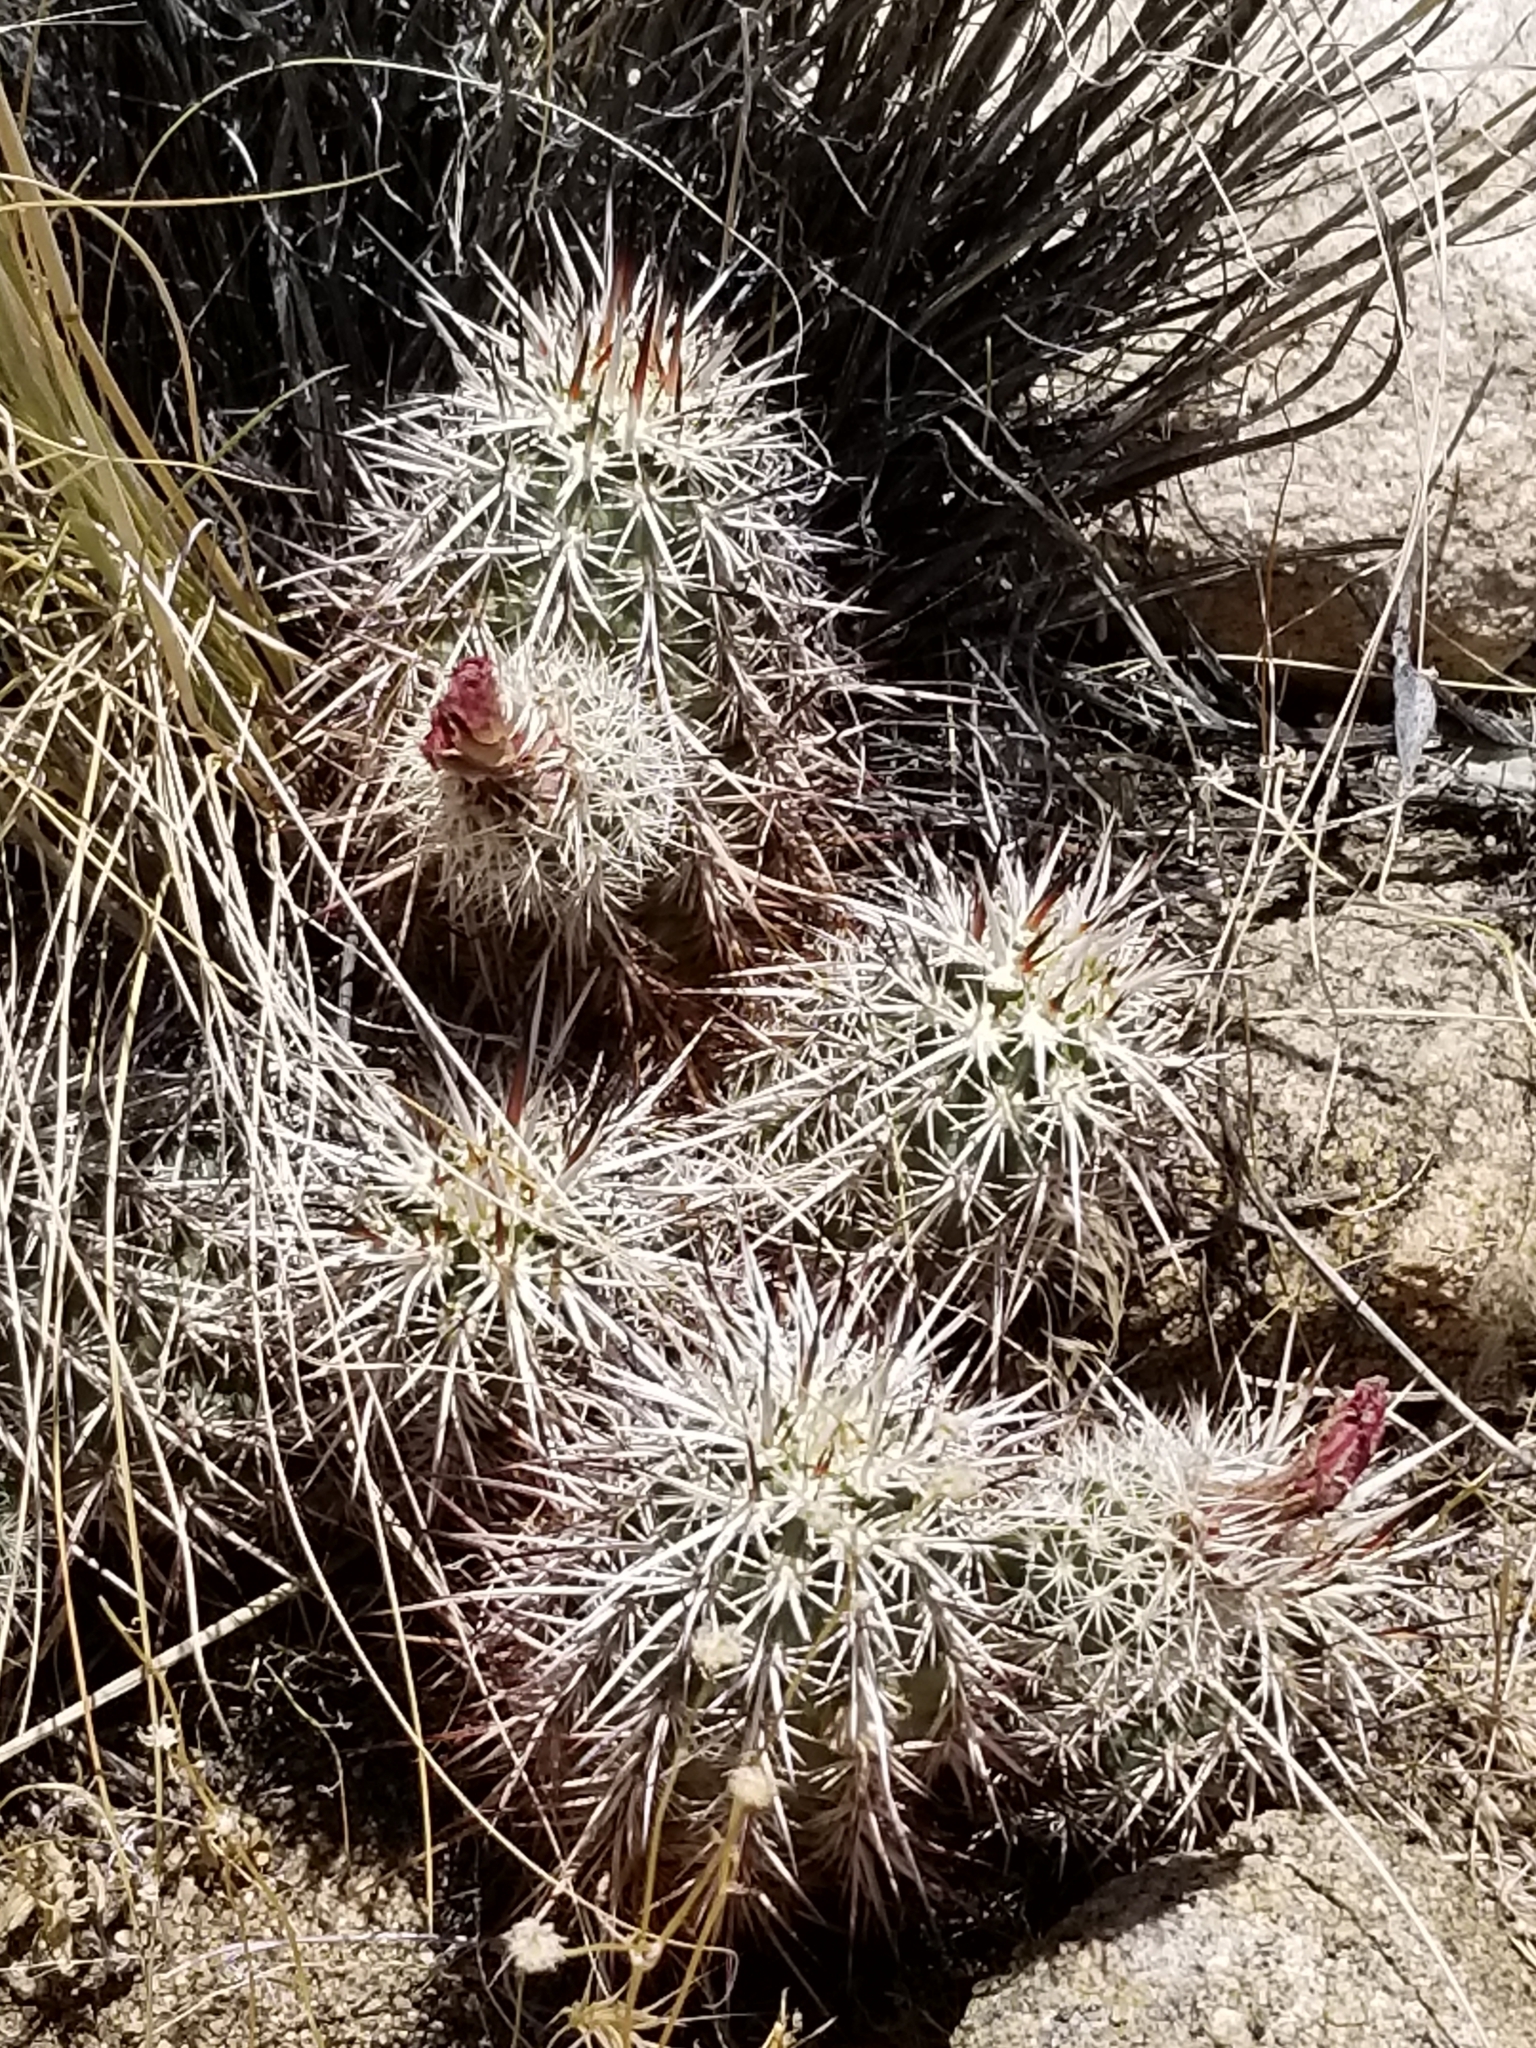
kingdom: Plantae
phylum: Tracheophyta
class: Magnoliopsida
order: Caryophyllales
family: Cactaceae
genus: Echinocereus
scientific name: Echinocereus engelmannii
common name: Engelmann's hedgehog cactus
